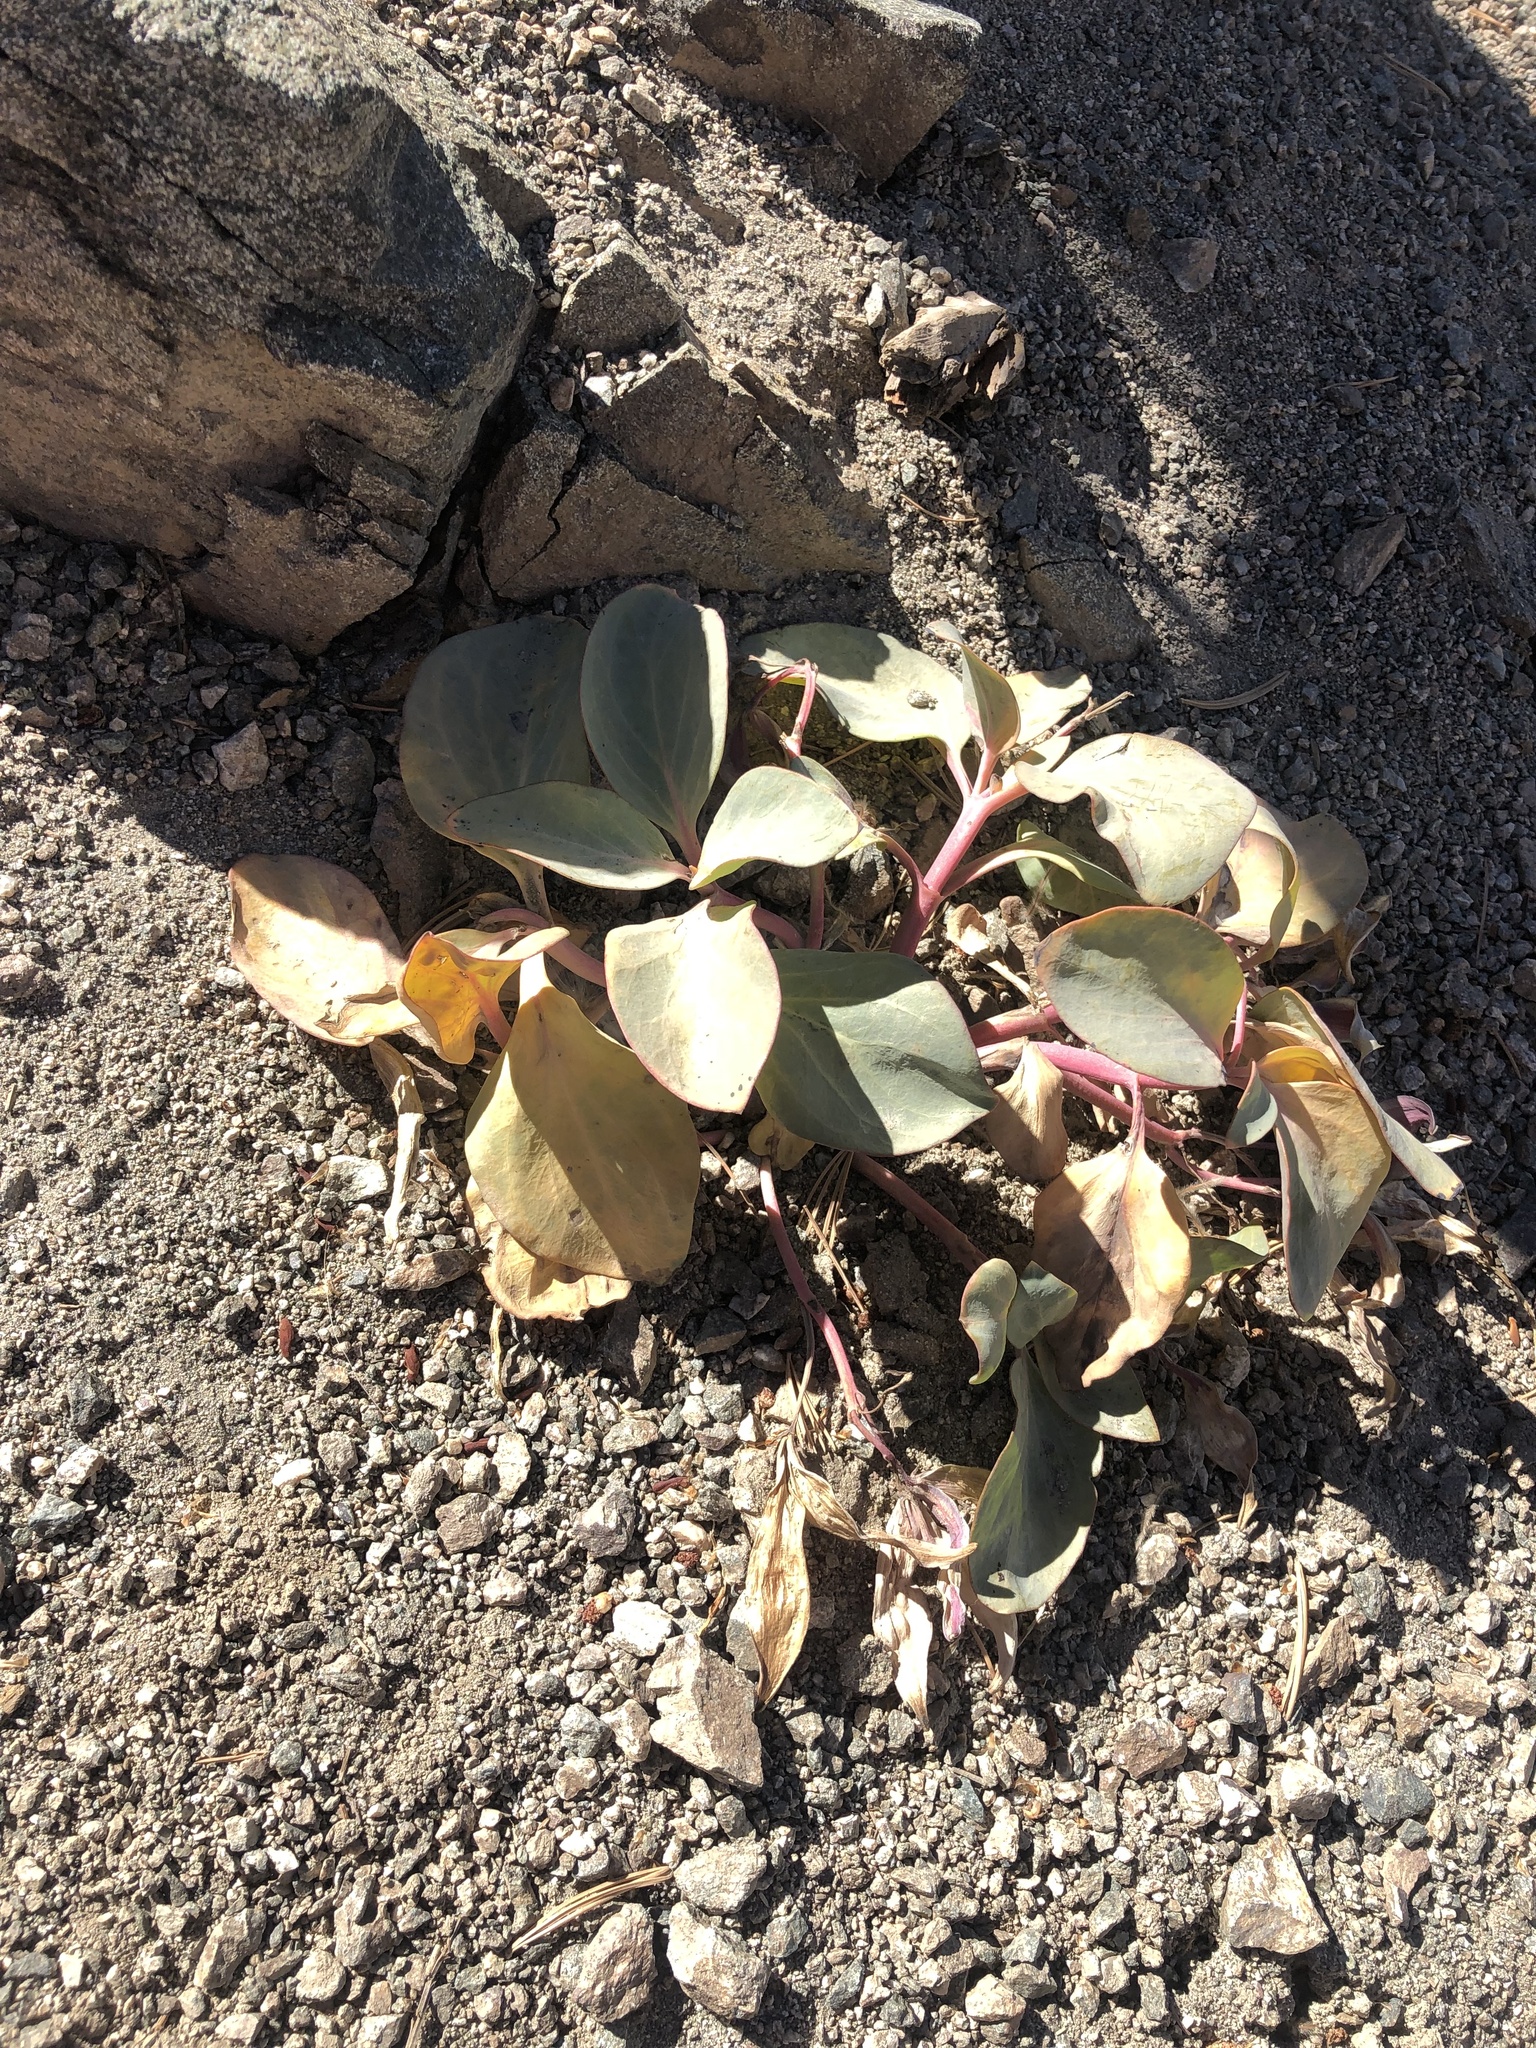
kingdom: Plantae
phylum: Tracheophyta
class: Magnoliopsida
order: Gentianales
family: Apocynaceae
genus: Cycladenia
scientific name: Cycladenia humilis
